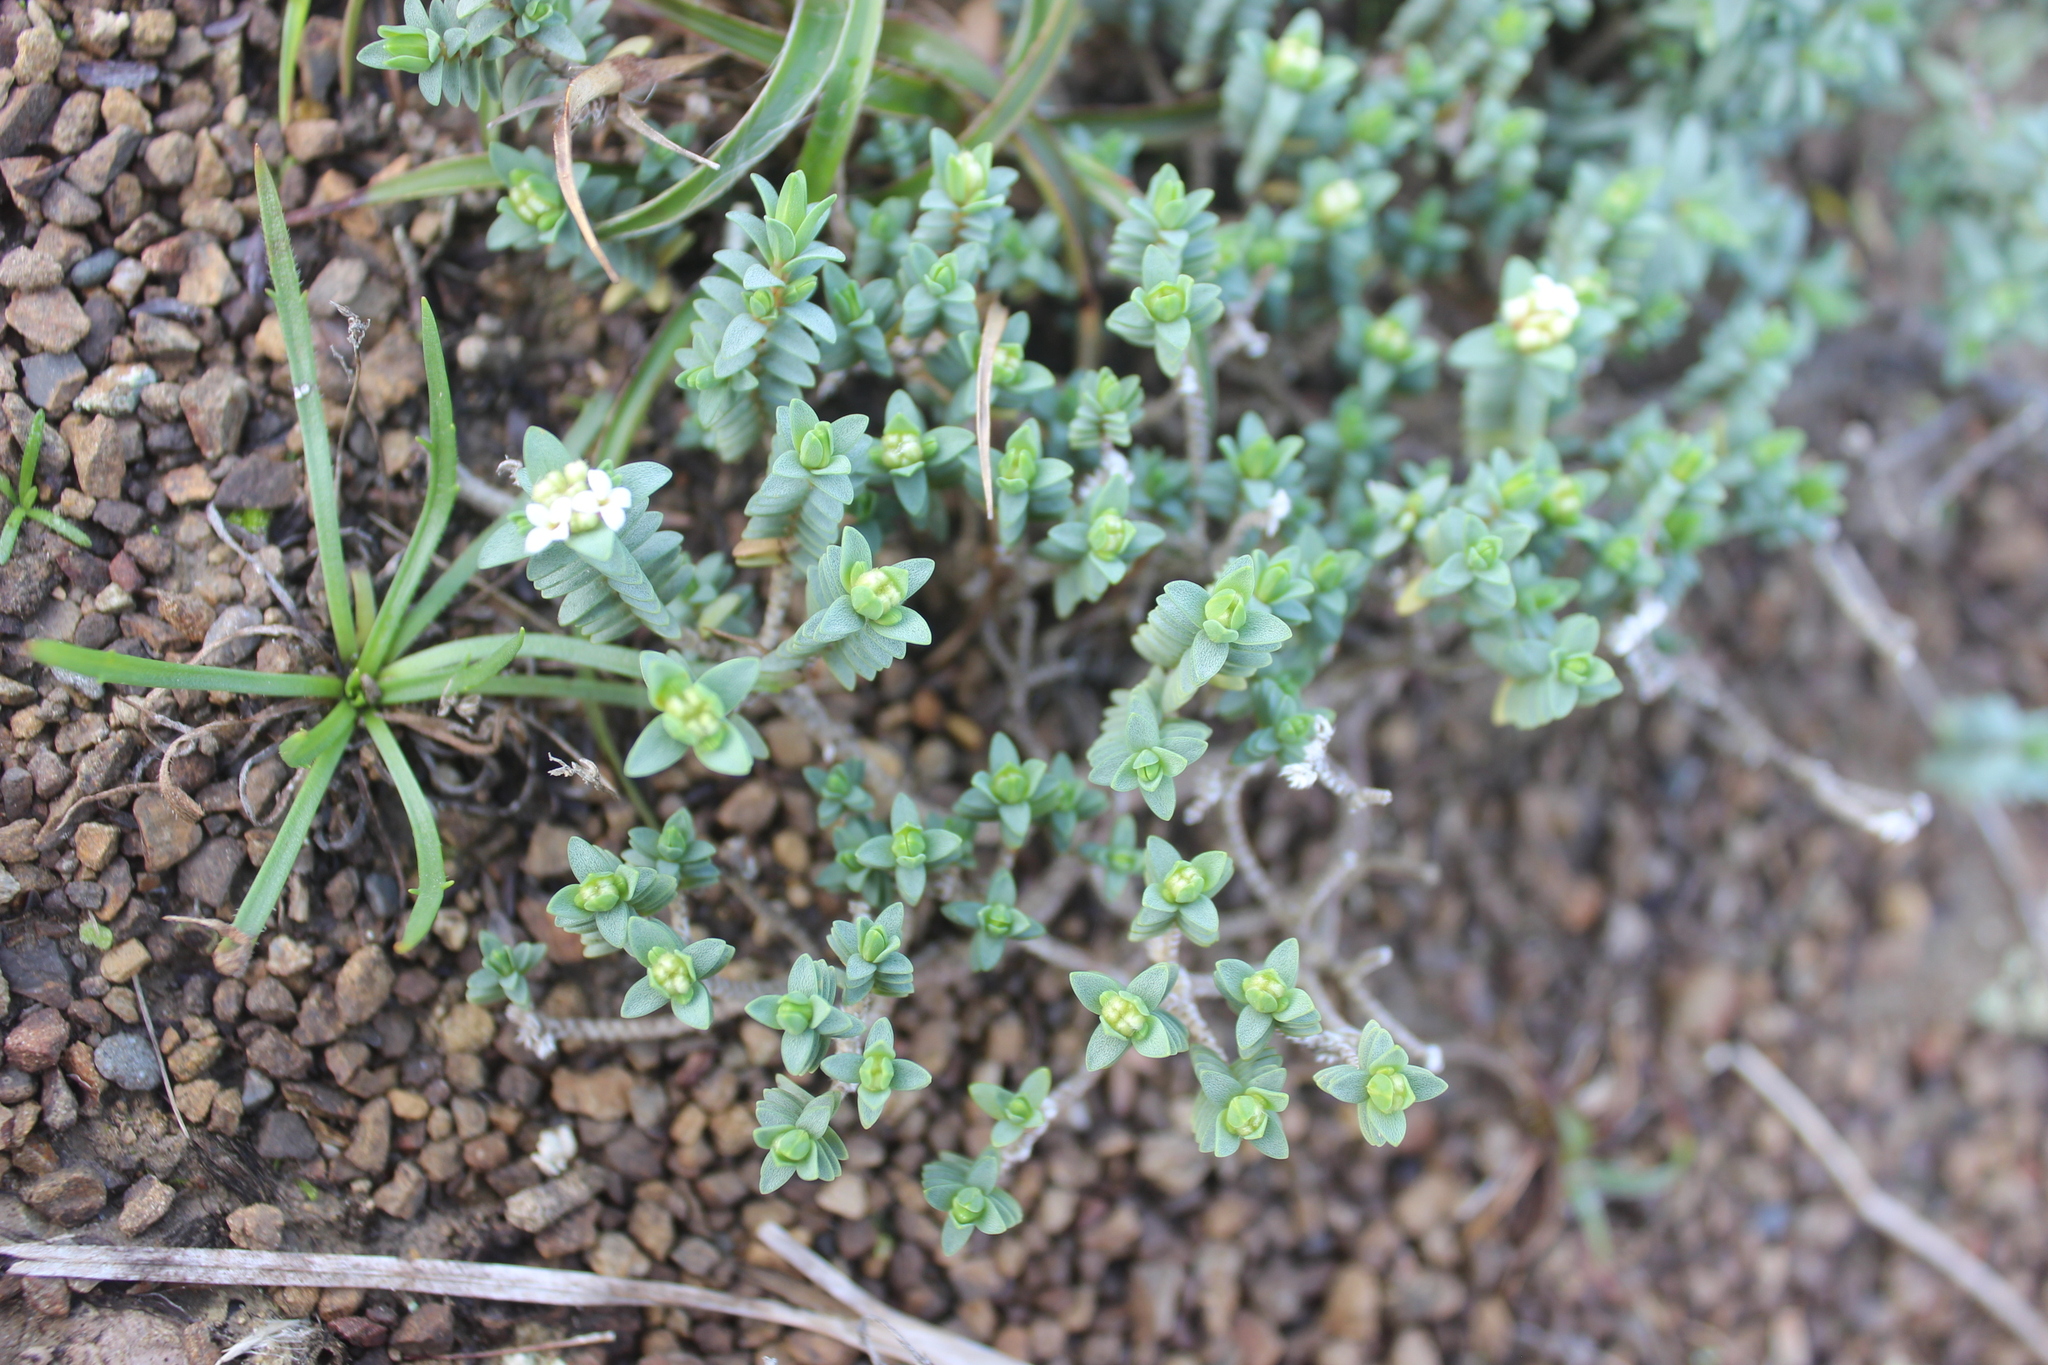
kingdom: Plantae
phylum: Tracheophyta
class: Magnoliopsida
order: Malvales
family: Thymelaeaceae
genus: Pimelea
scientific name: Pimelea prostrata
